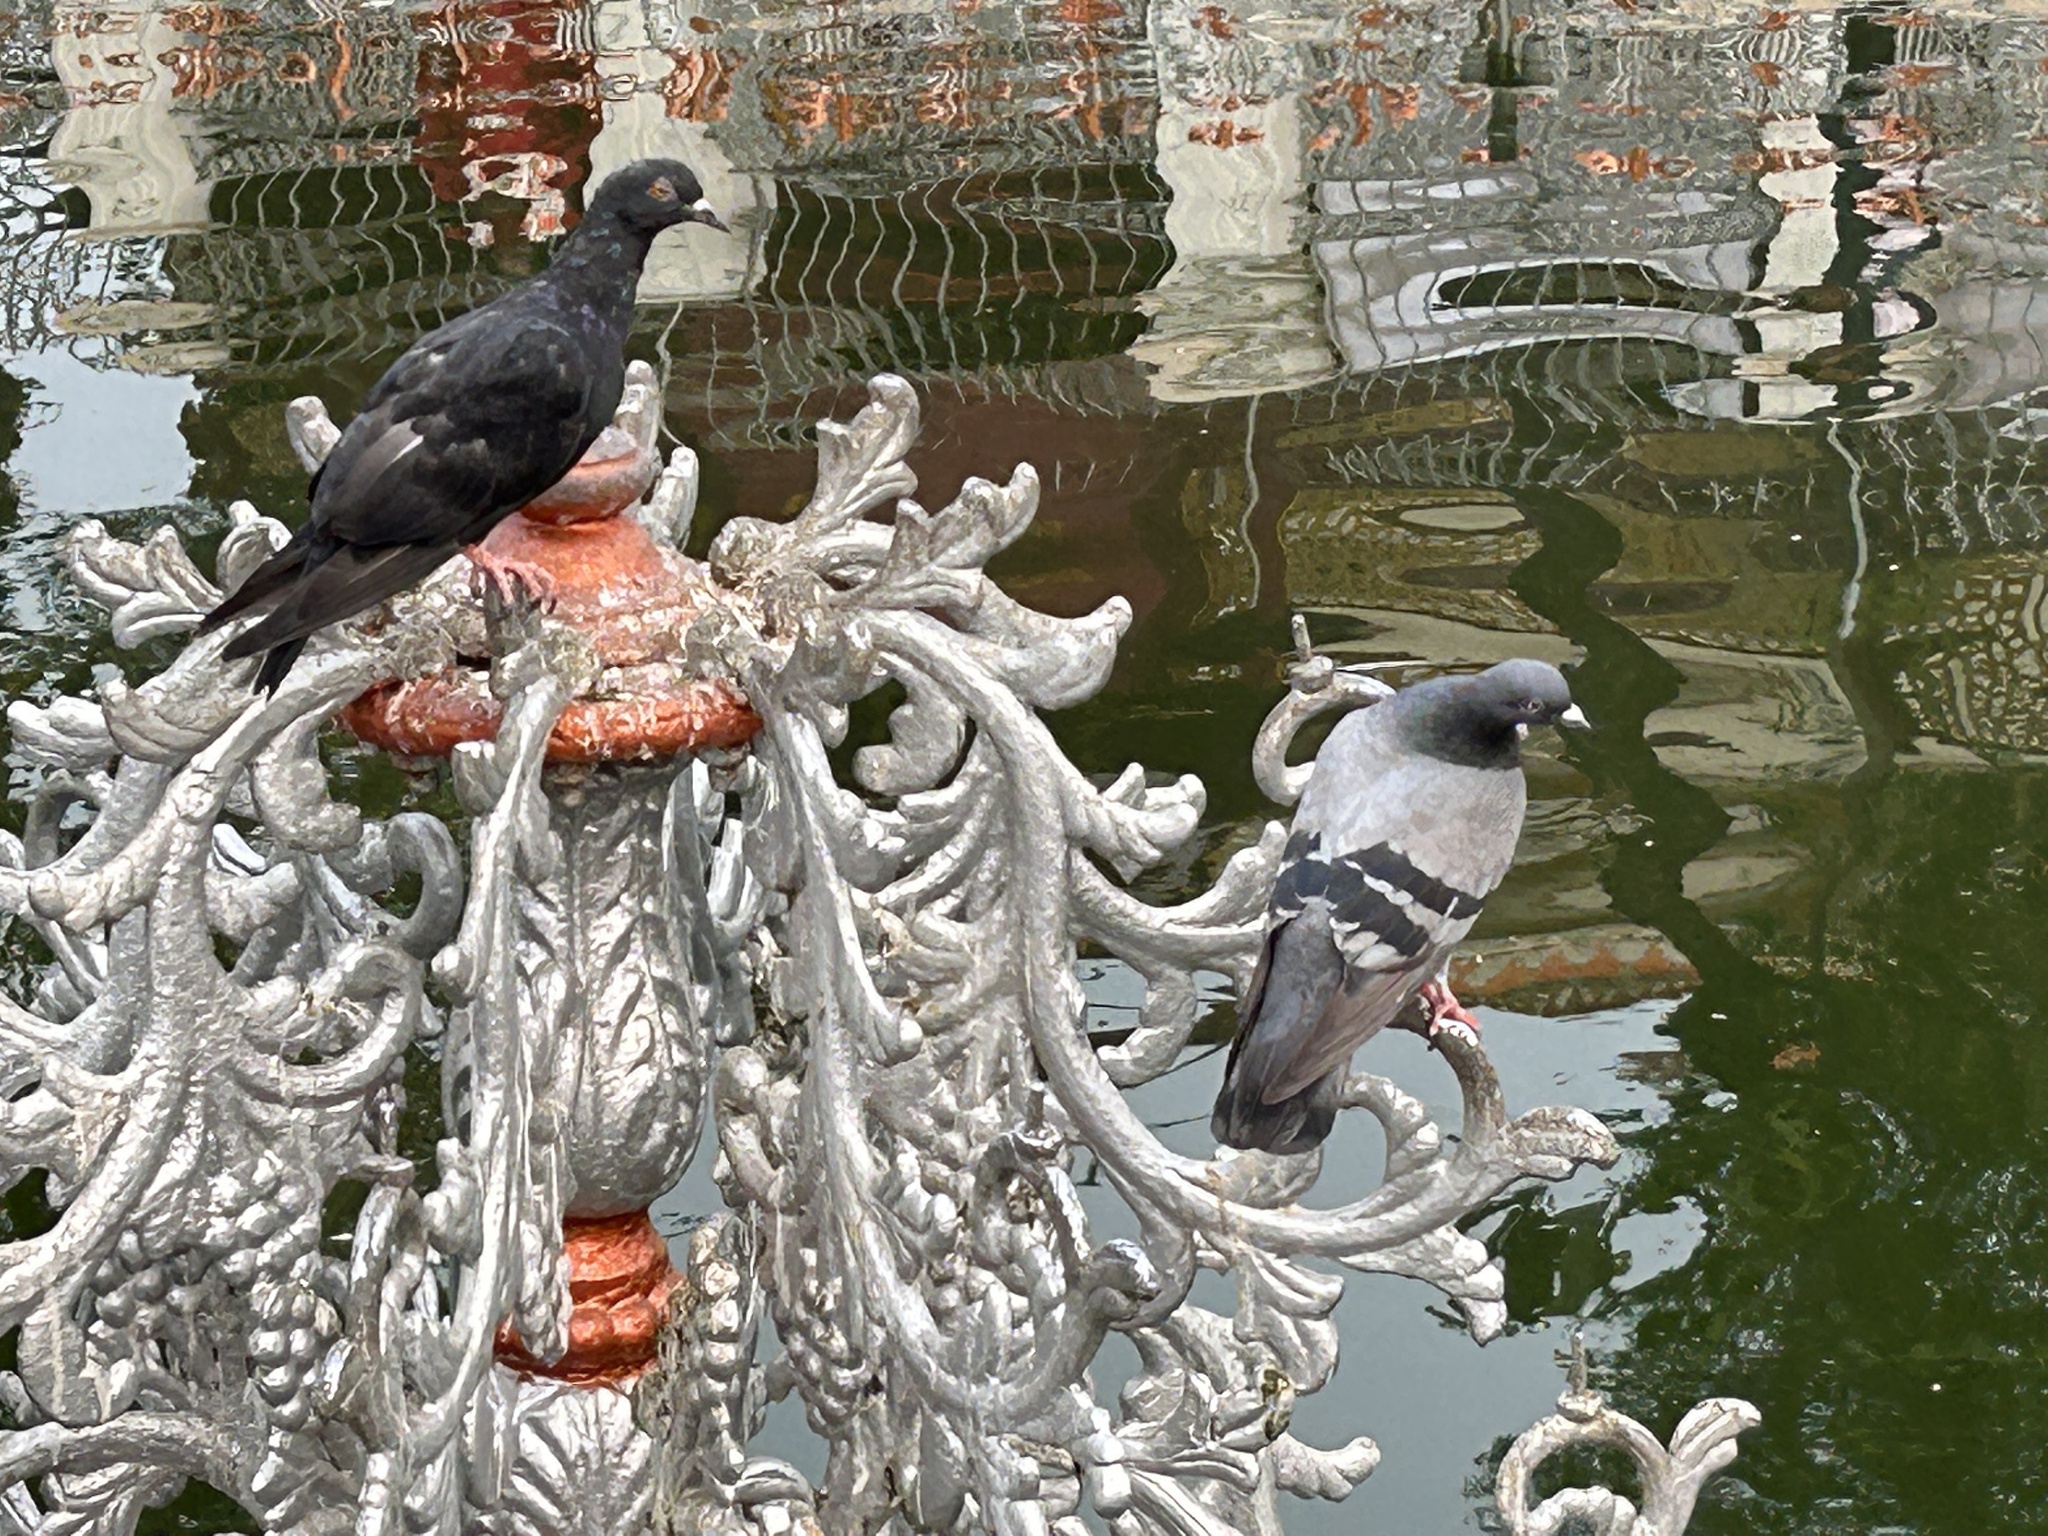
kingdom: Animalia
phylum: Chordata
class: Aves
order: Columbiformes
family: Columbidae
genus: Columba
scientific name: Columba livia
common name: Rock pigeon
